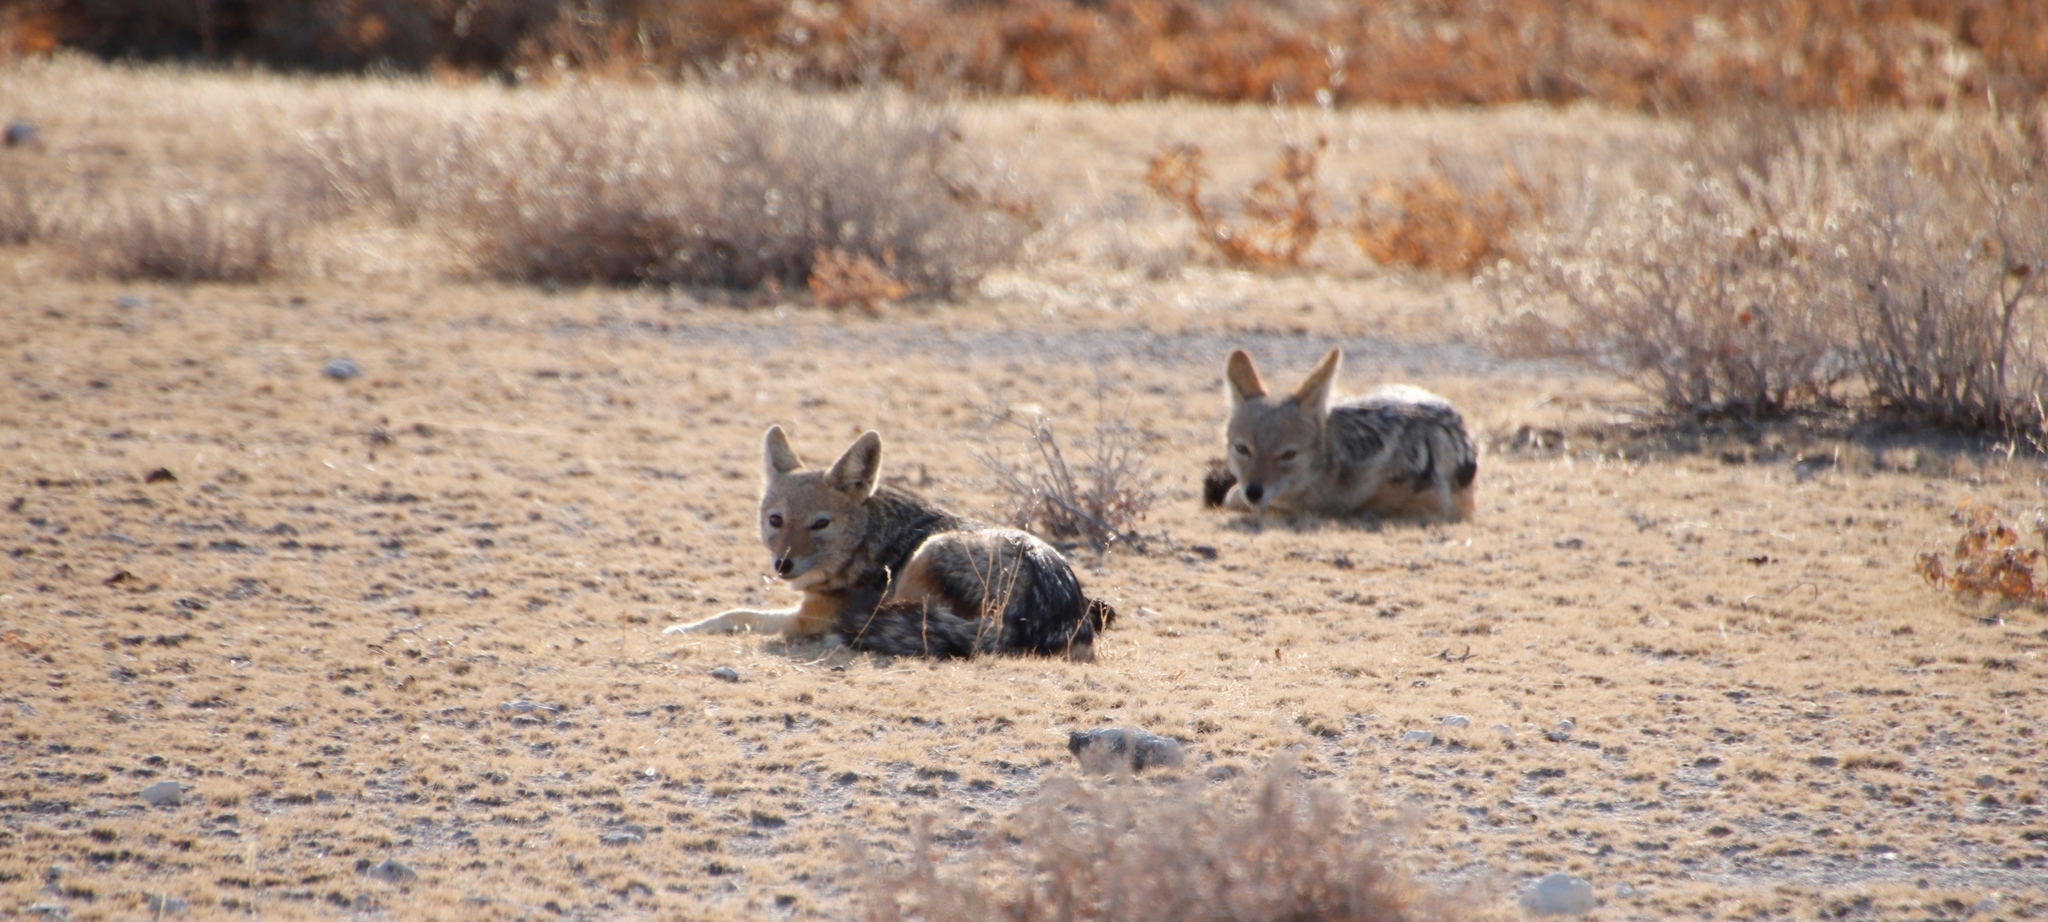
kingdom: Animalia
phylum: Chordata
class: Mammalia
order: Carnivora
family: Canidae
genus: Lupulella
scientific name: Lupulella
